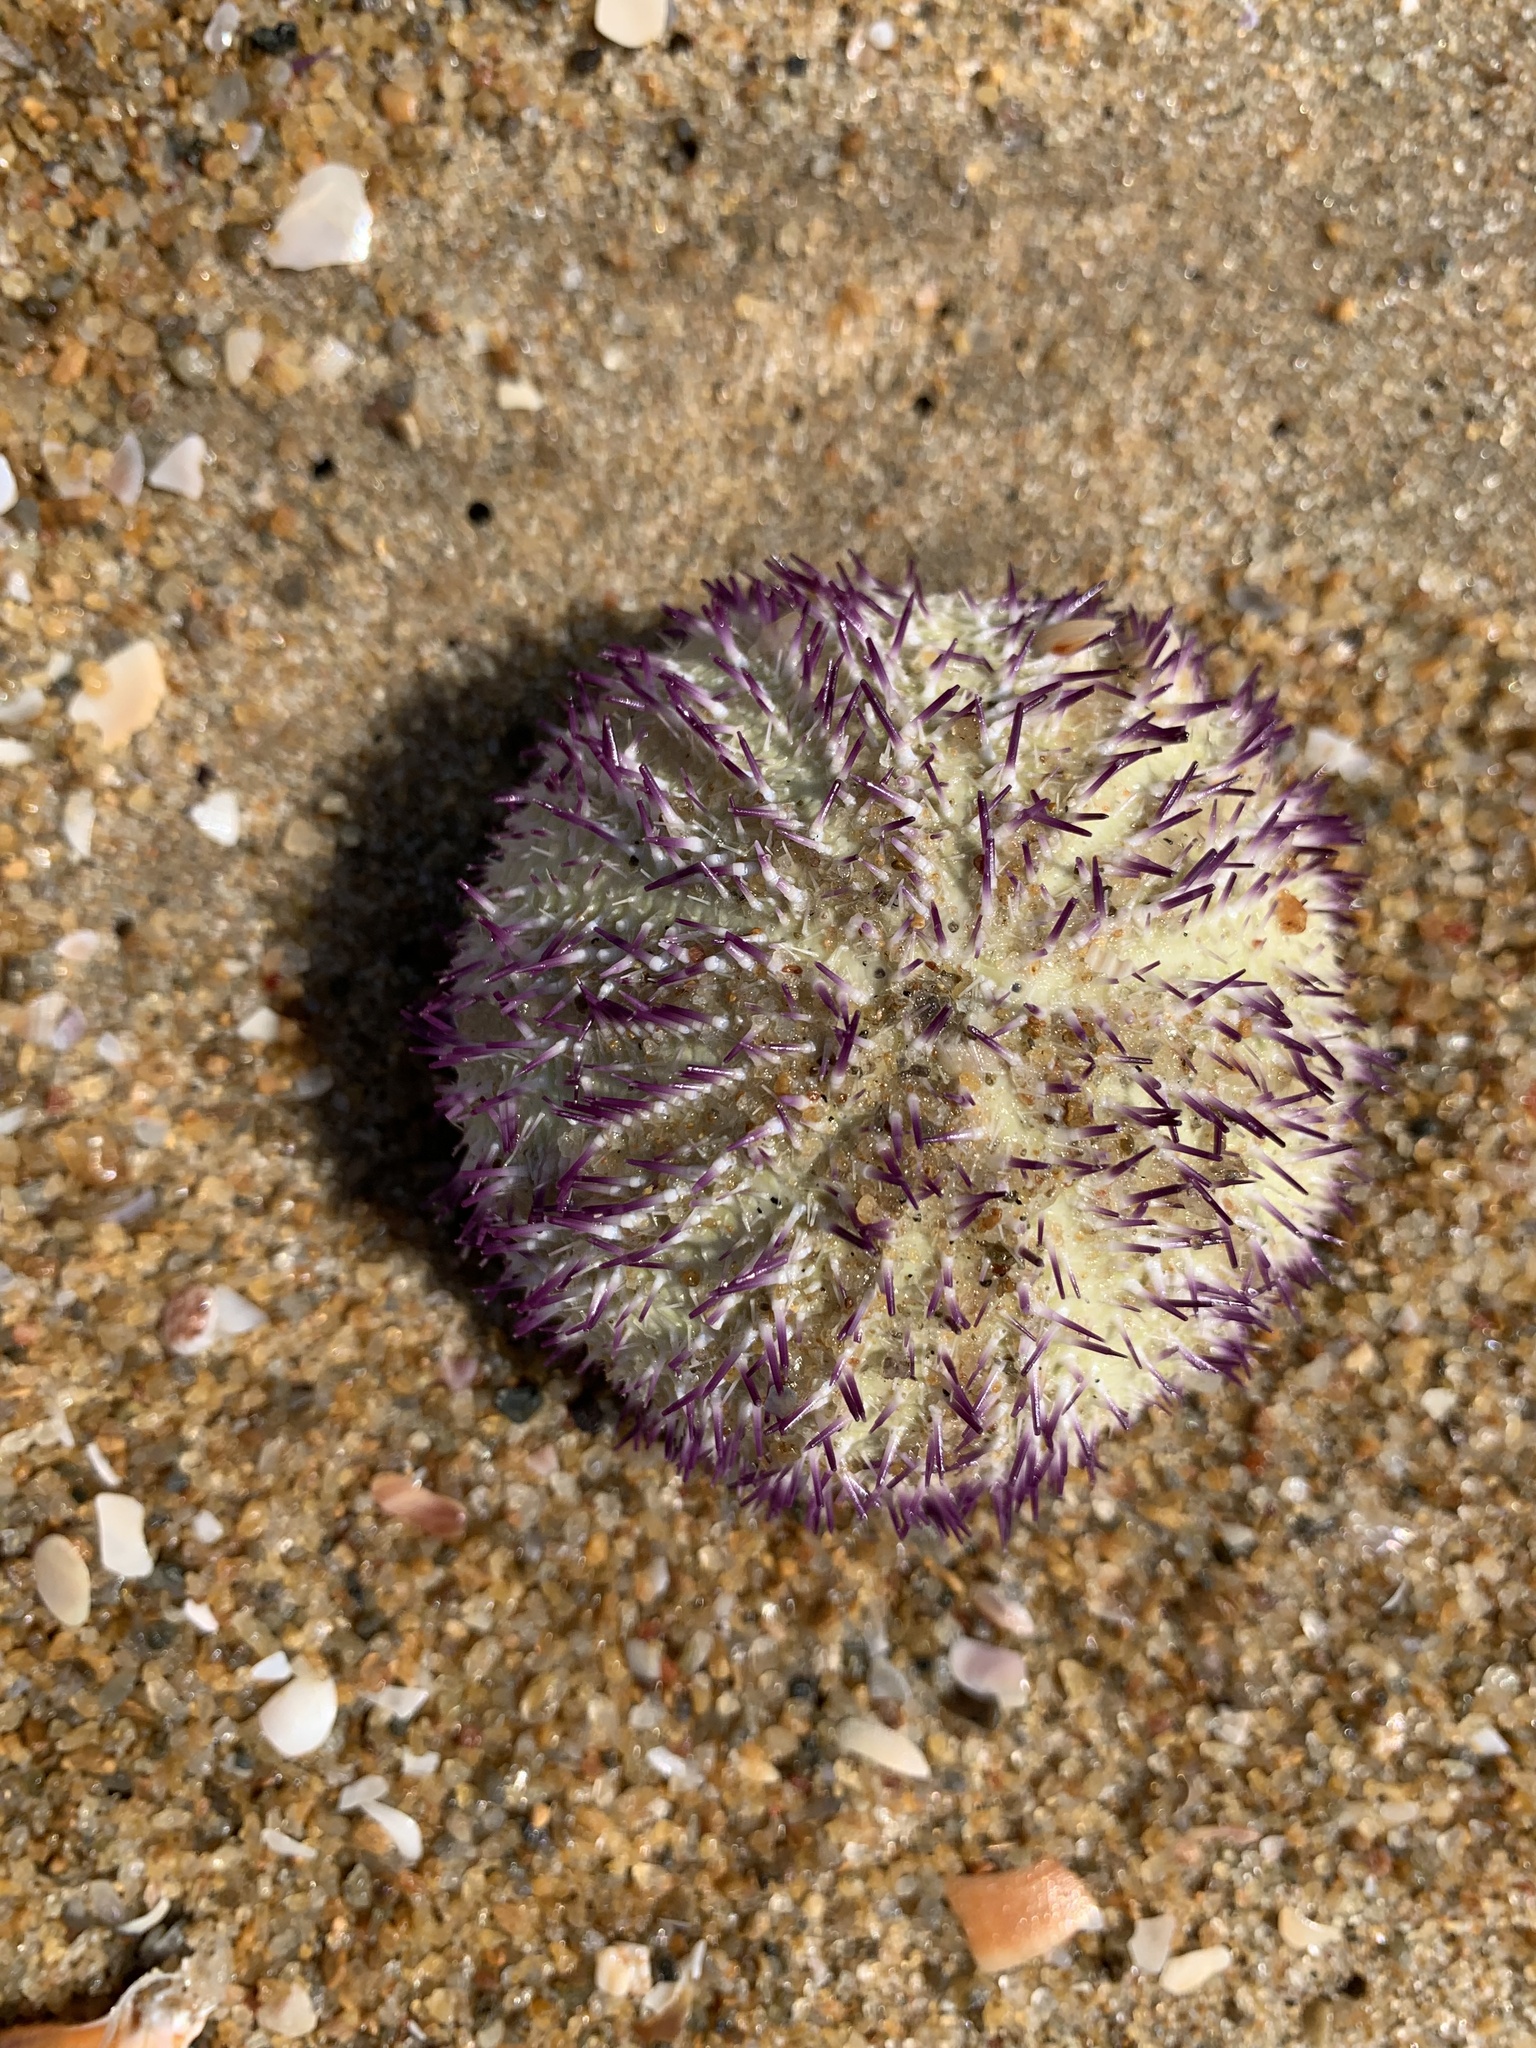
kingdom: Animalia
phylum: Echinodermata
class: Echinoidea
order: Camarodonta
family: Temnopleuridae
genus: Salmacis
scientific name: Salmacis virgulata
